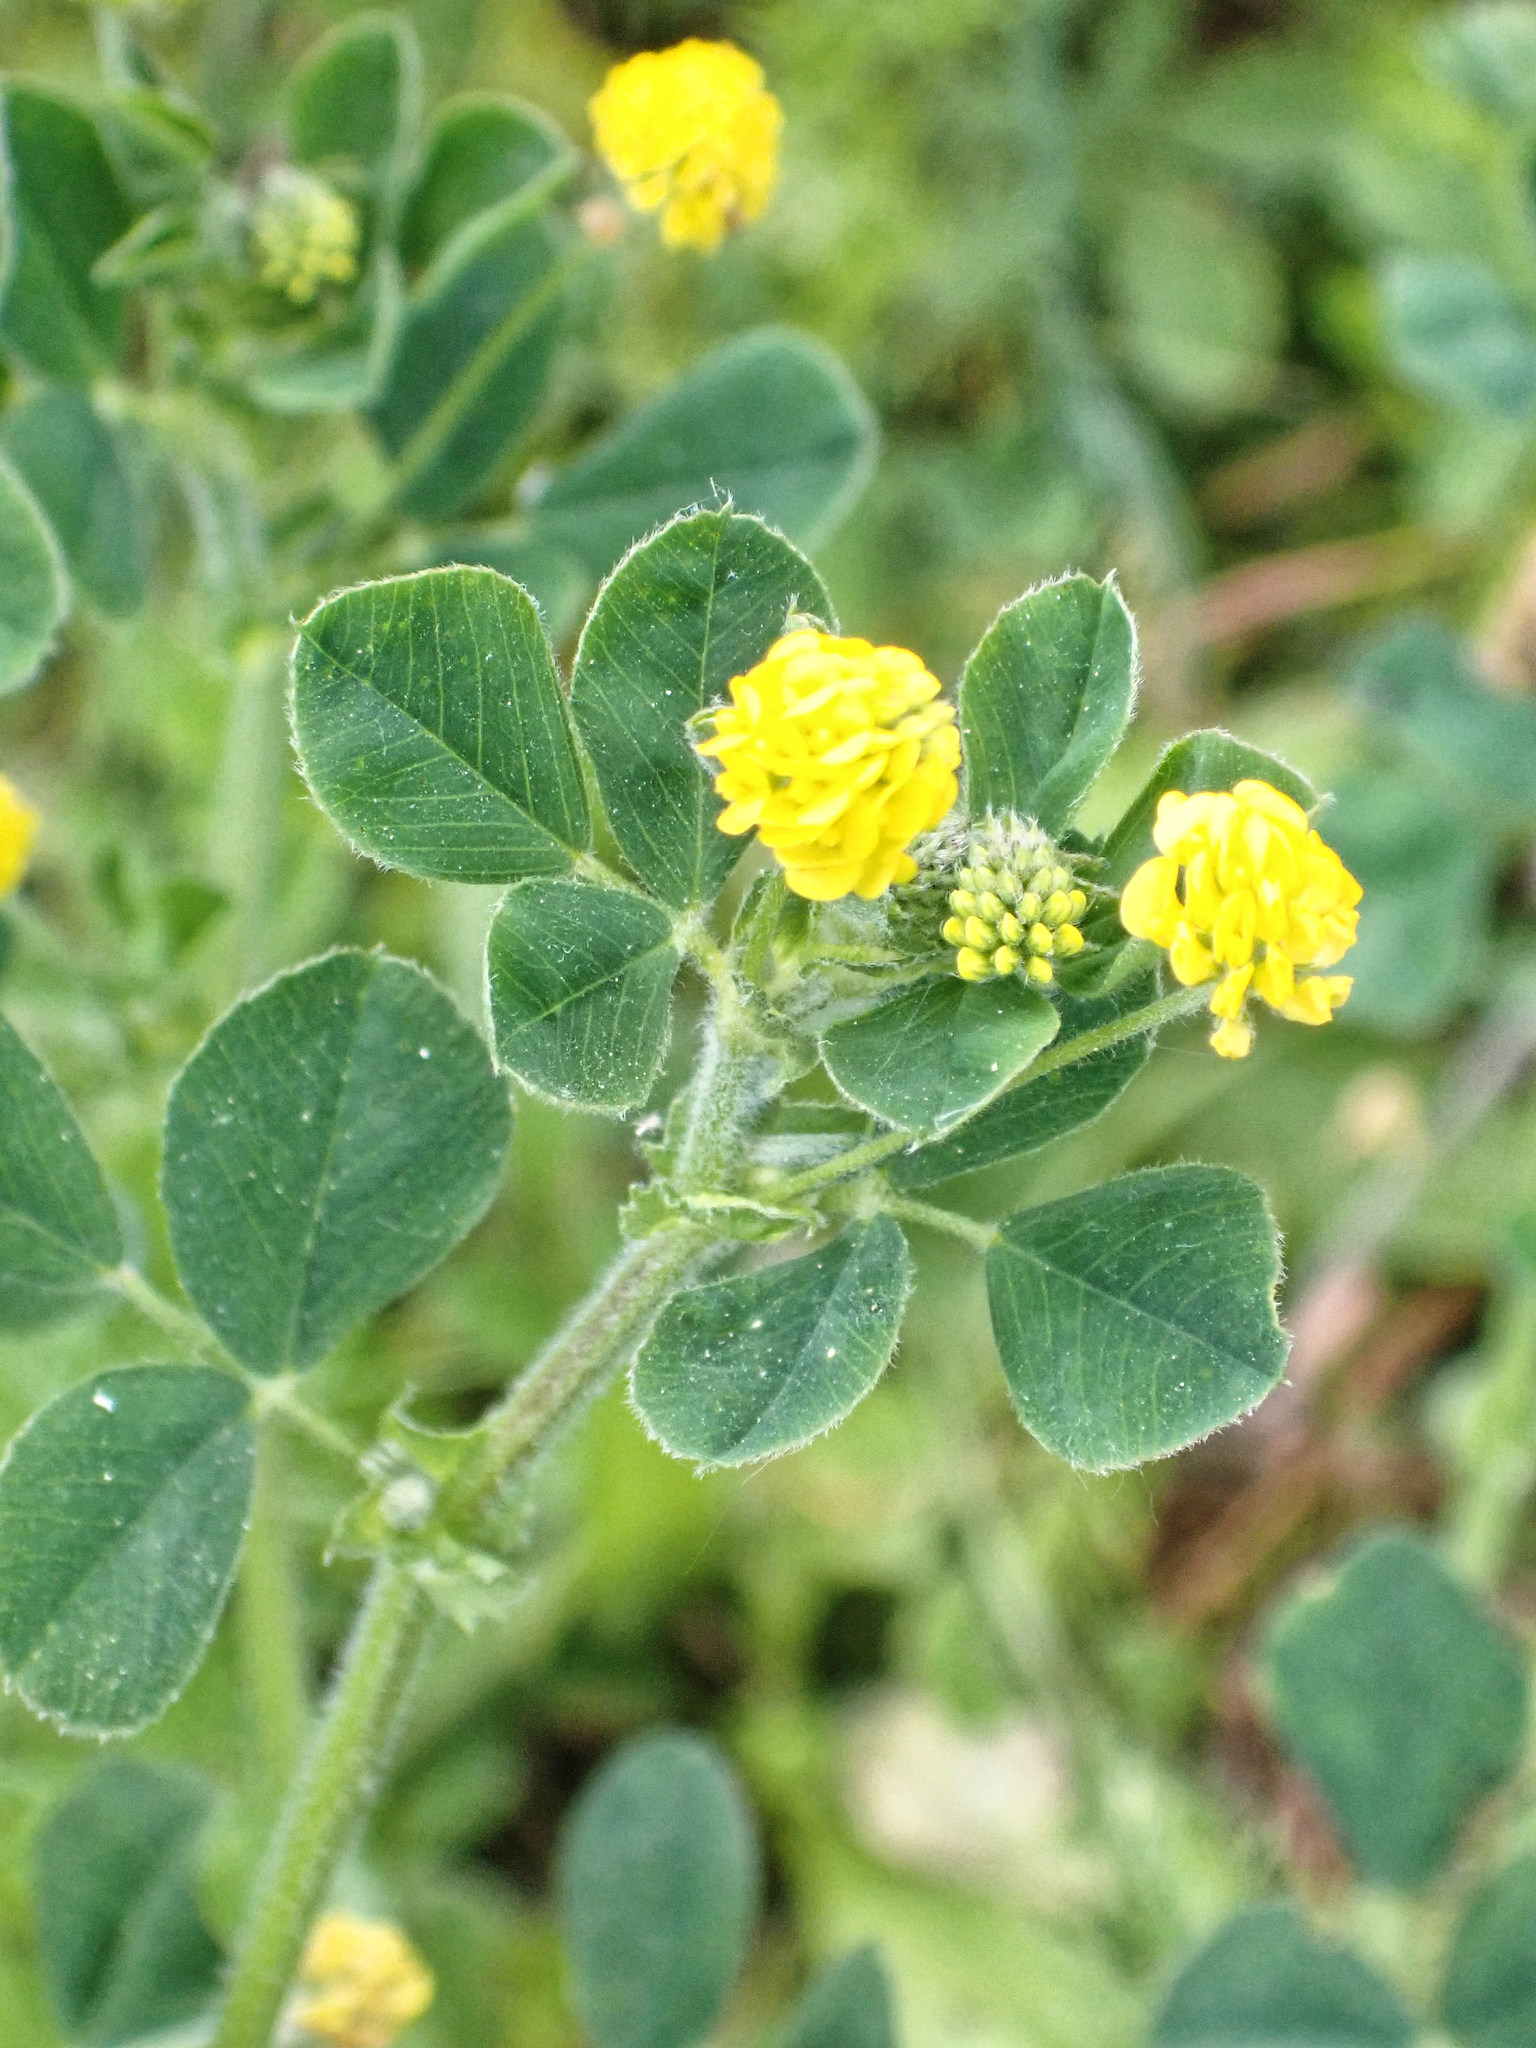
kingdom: Plantae
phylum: Tracheophyta
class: Magnoliopsida
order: Fabales
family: Fabaceae
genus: Medicago
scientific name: Medicago lupulina
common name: Black medick
